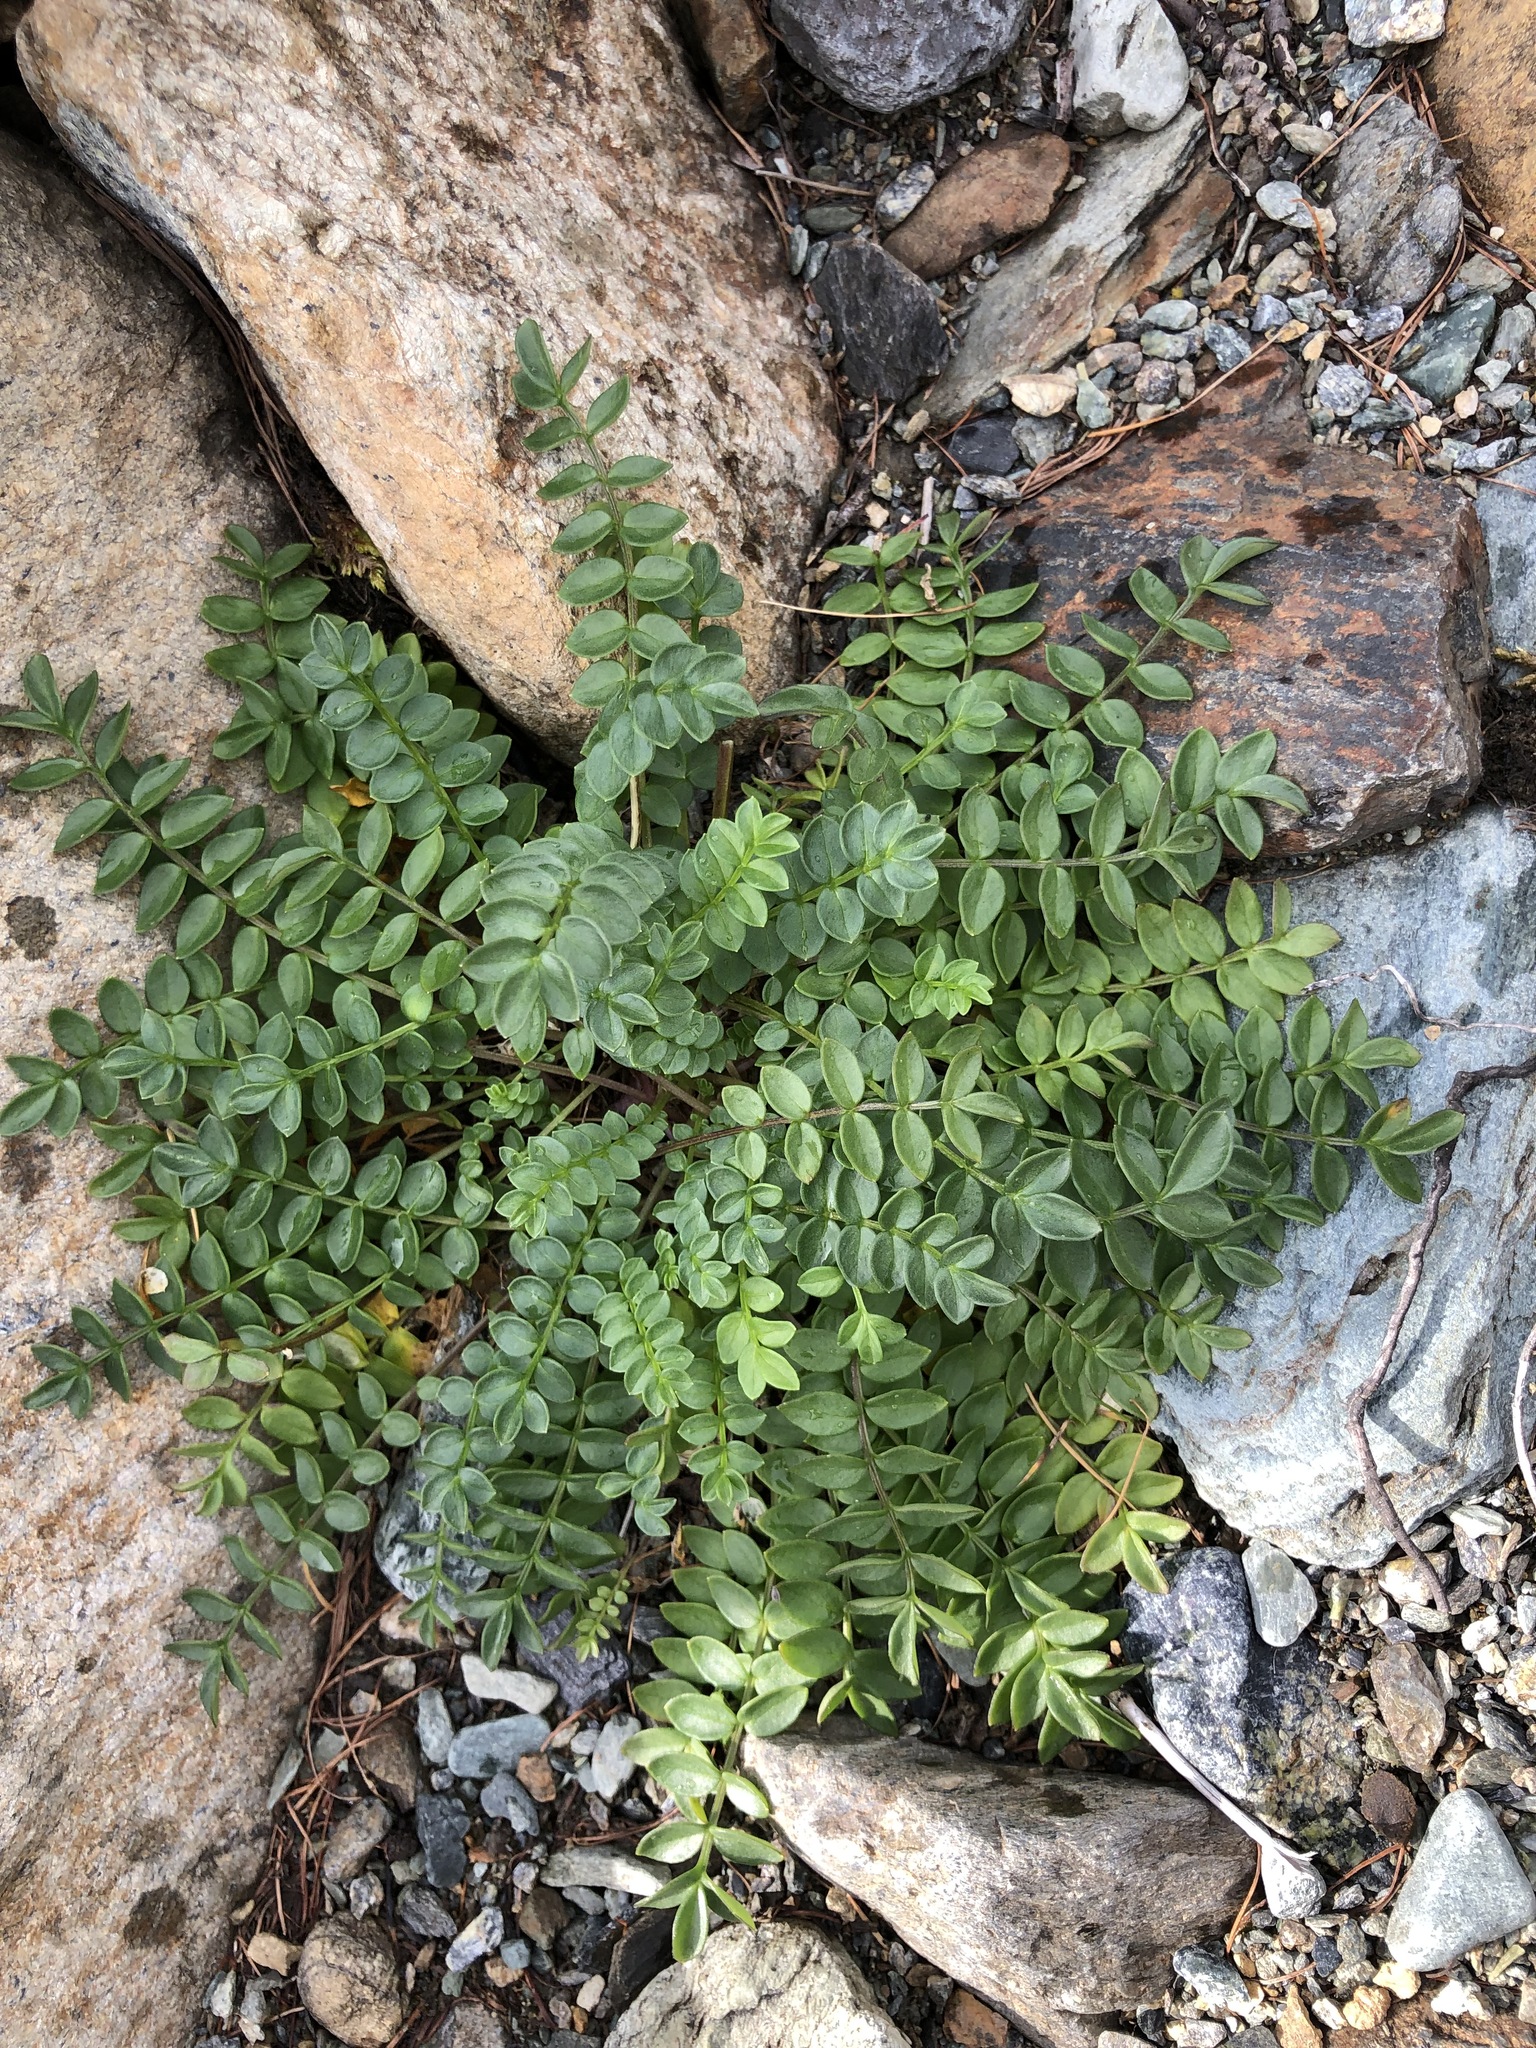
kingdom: Plantae
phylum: Tracheophyta
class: Magnoliopsida
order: Ericales
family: Polemoniaceae
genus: Polemonium
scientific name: Polemonium boreale
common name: Boreal jacob's-ladder
